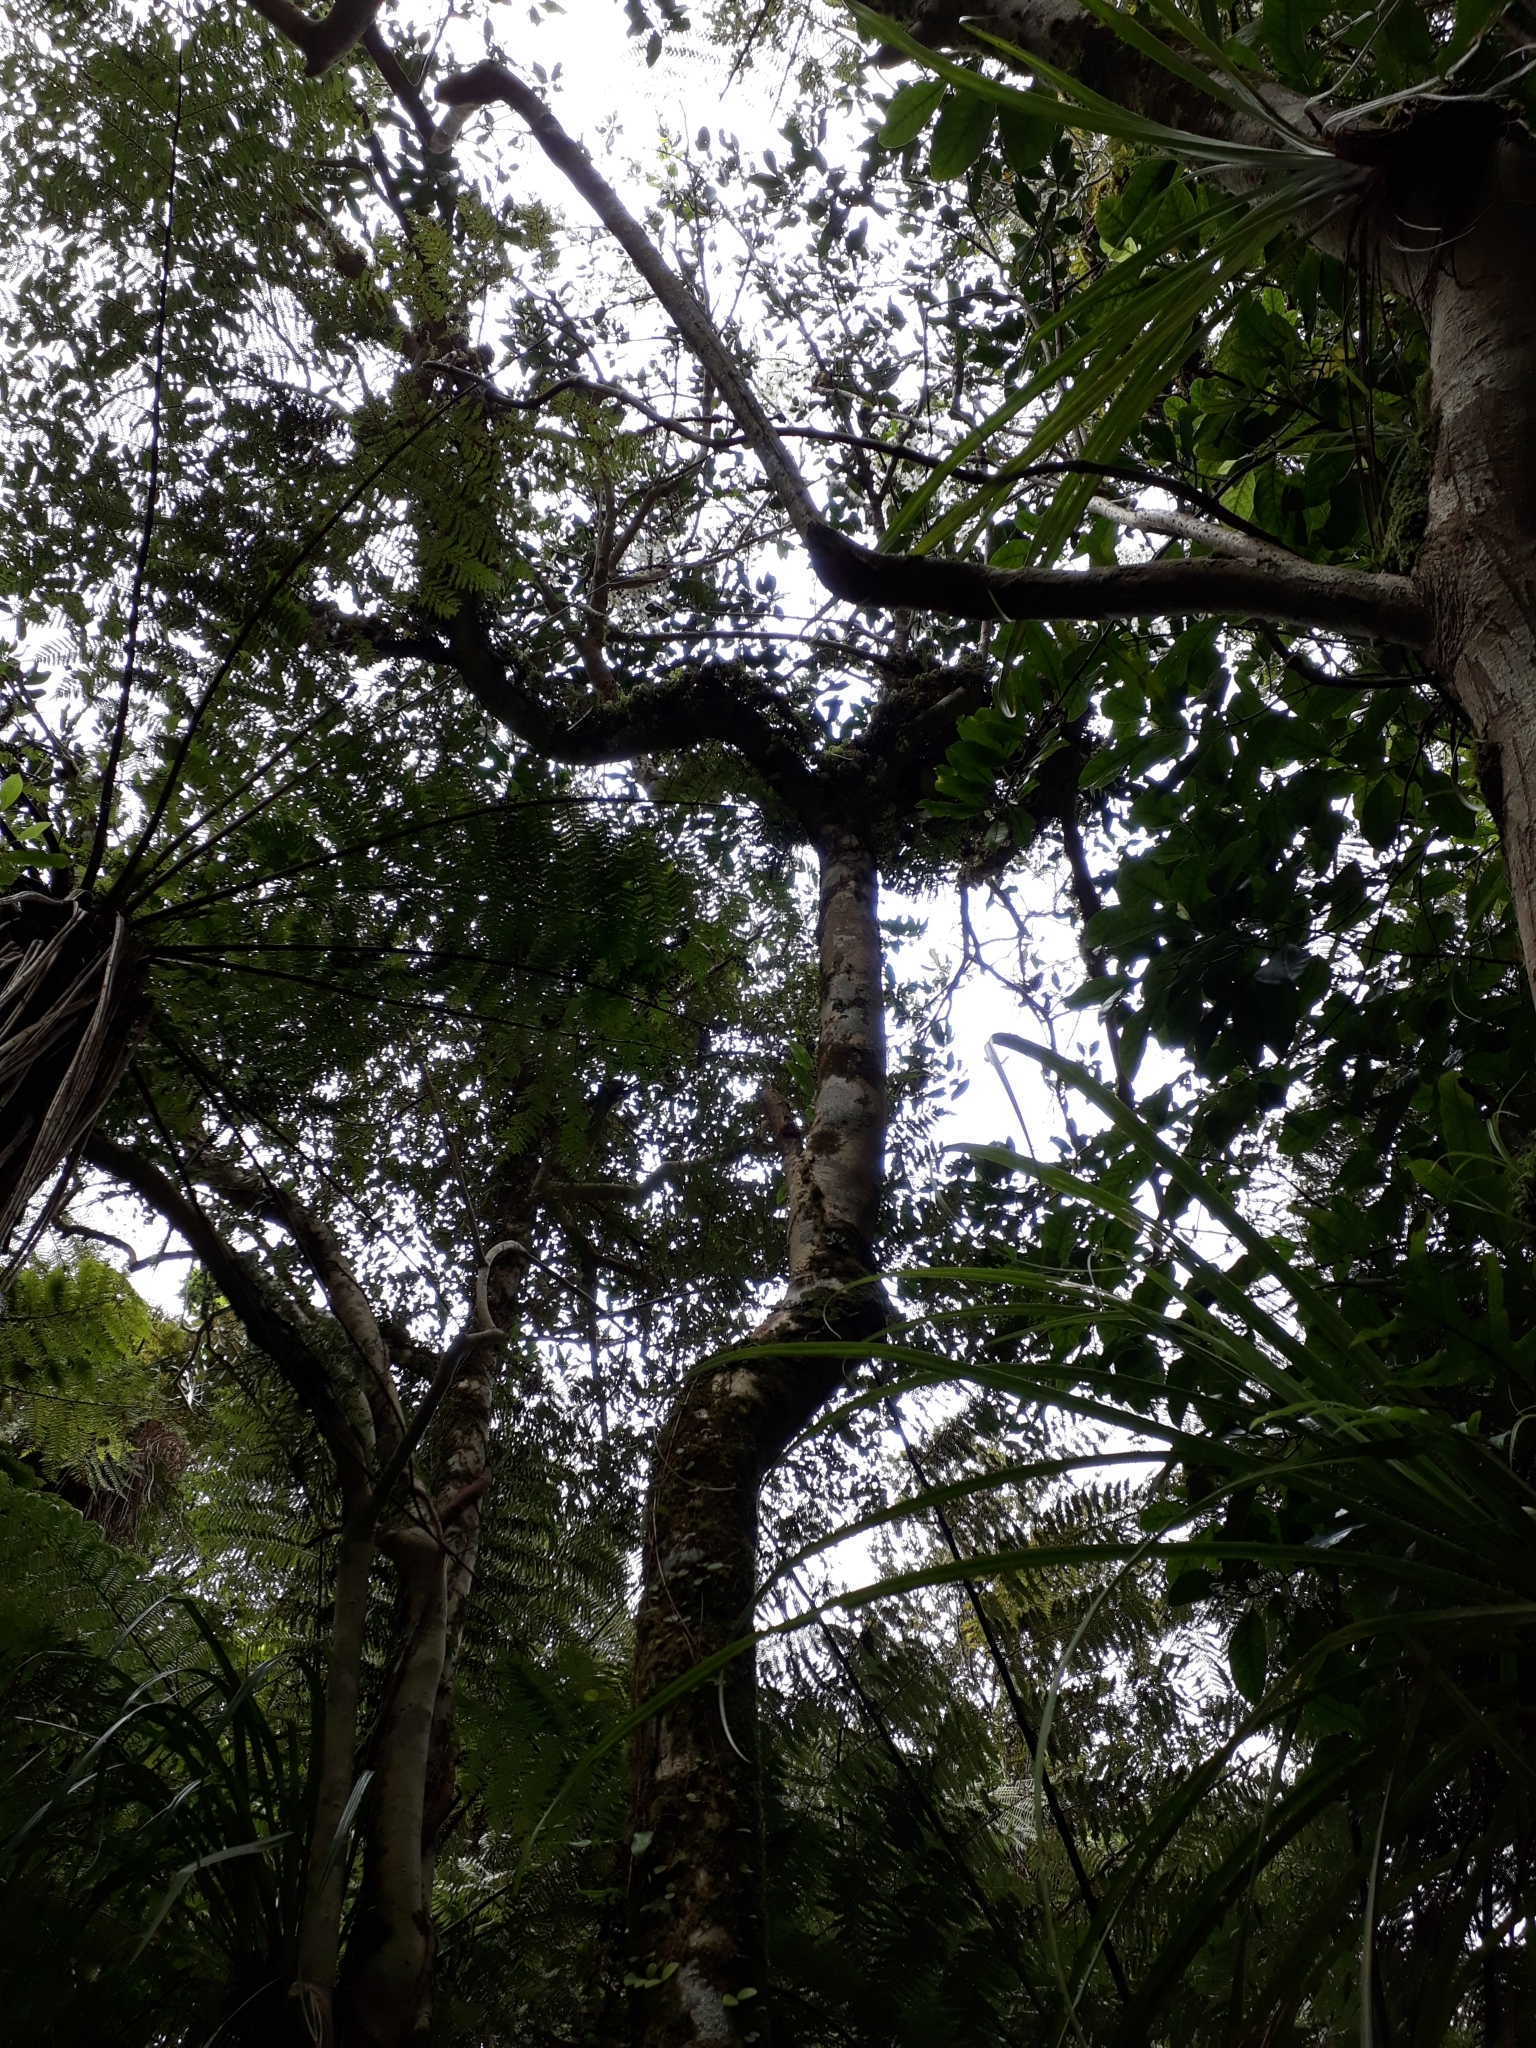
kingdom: Plantae
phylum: Tracheophyta
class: Magnoliopsida
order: Ranunculales
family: Ranunculaceae
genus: Clematis
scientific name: Clematis paniculata
